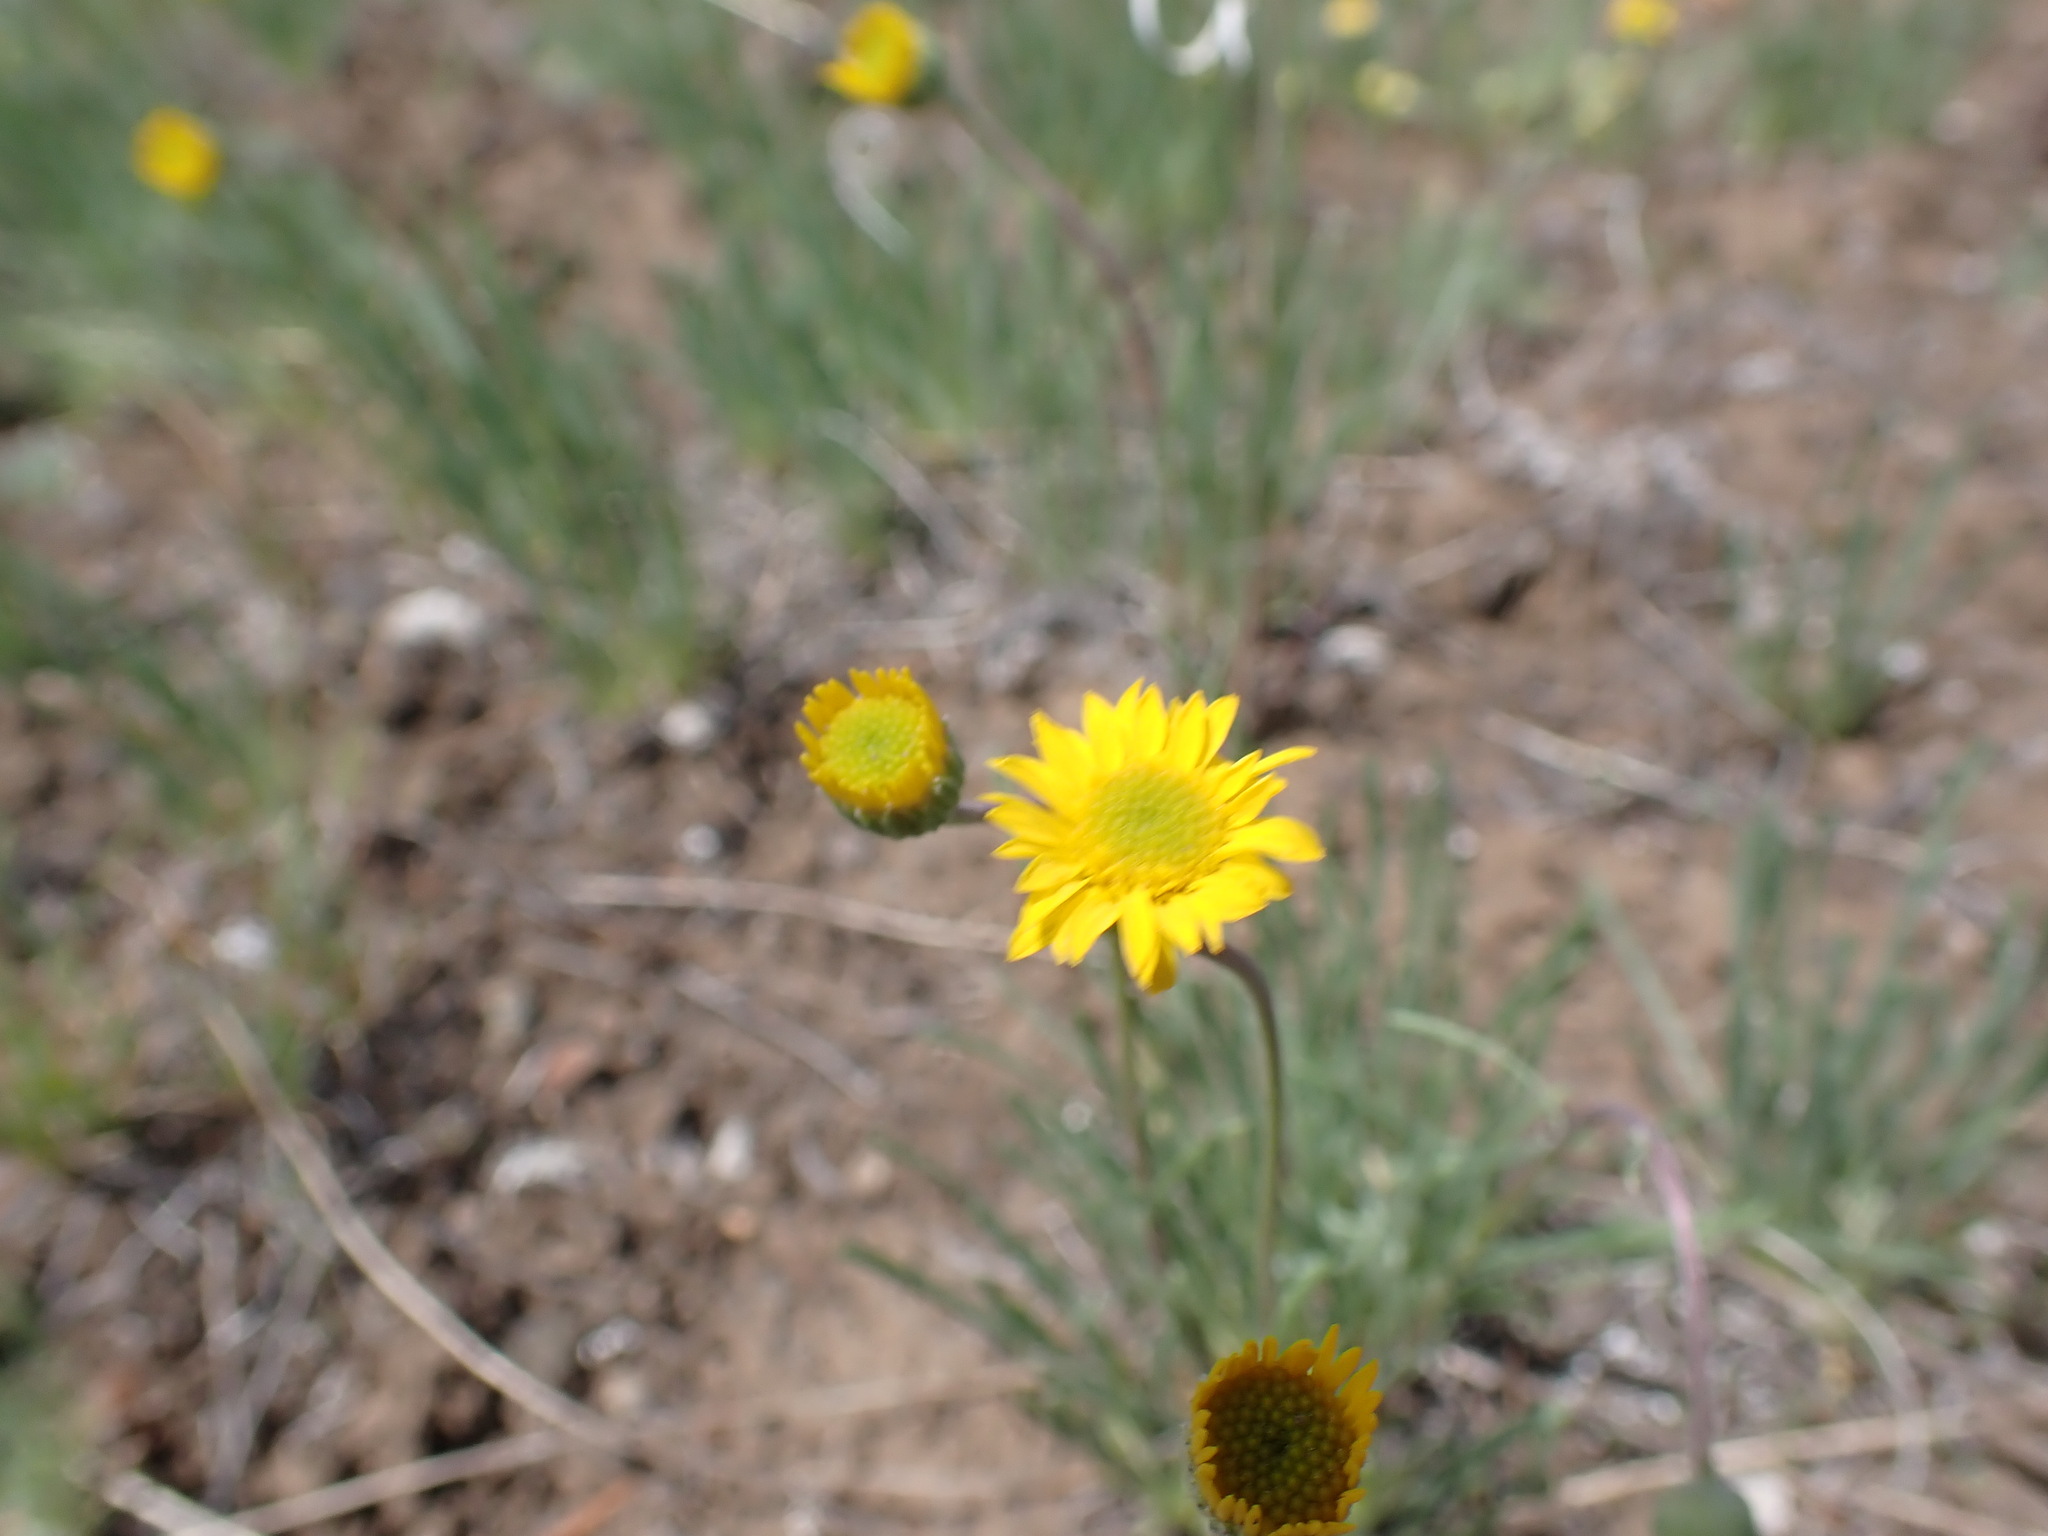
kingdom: Plantae
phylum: Tracheophyta
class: Magnoliopsida
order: Asterales
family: Asteraceae
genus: Erigeron
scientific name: Erigeron linearis
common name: Desert yellow fleabane
